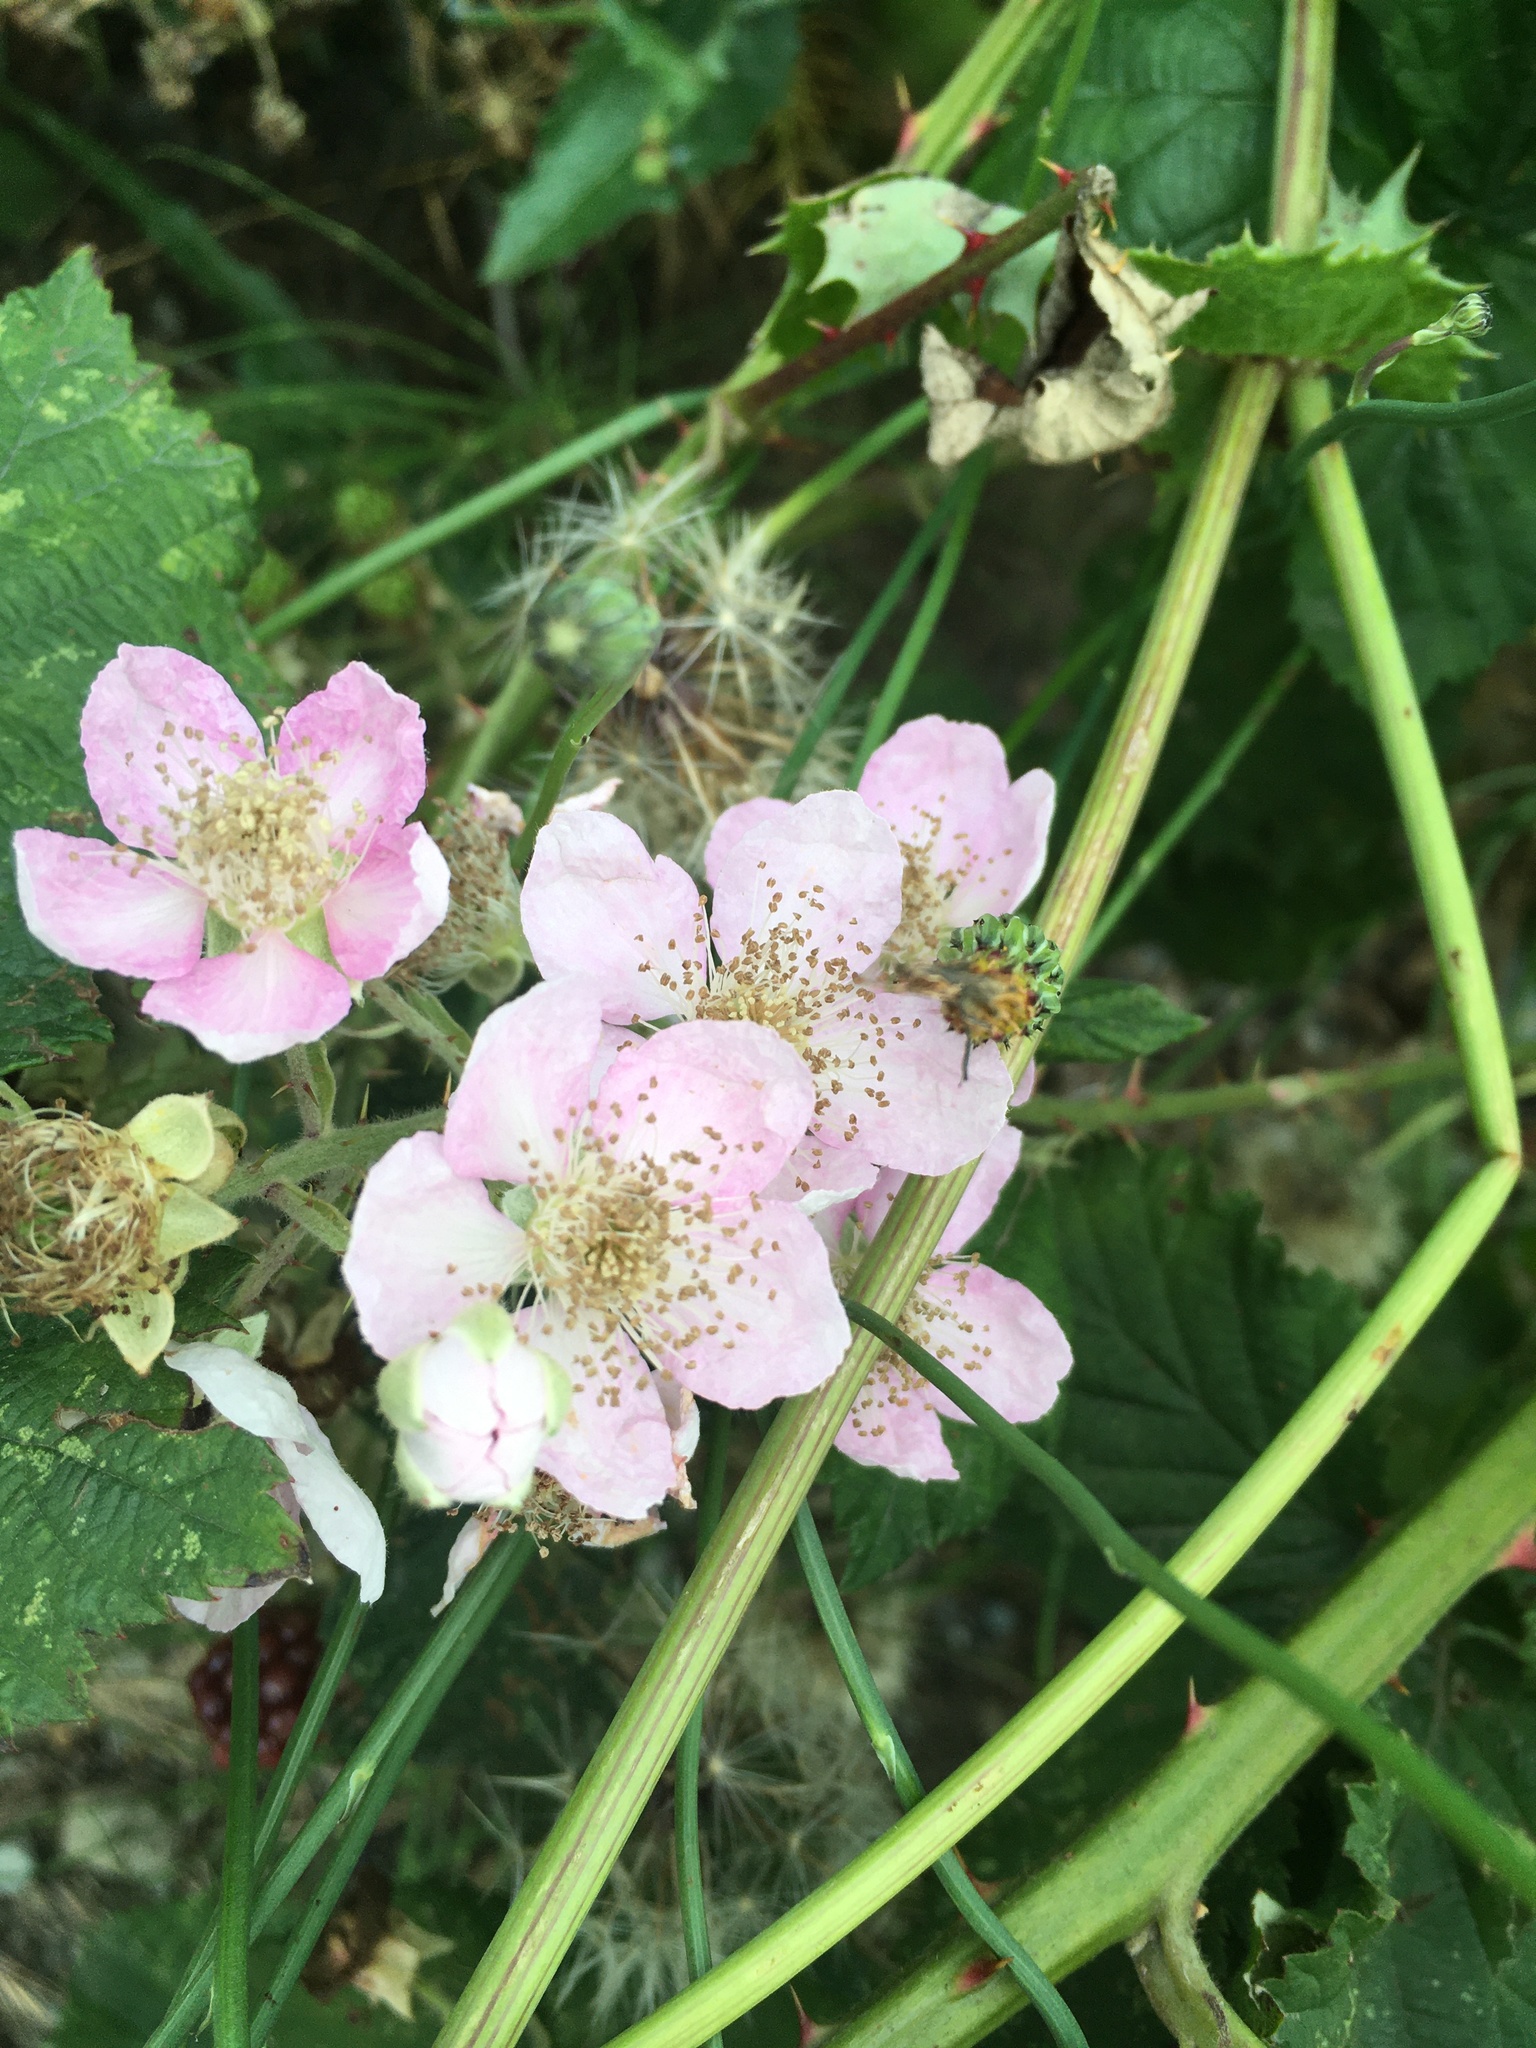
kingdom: Plantae
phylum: Tracheophyta
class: Magnoliopsida
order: Rosales
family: Rosaceae
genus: Rubus
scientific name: Rubus bifrons
